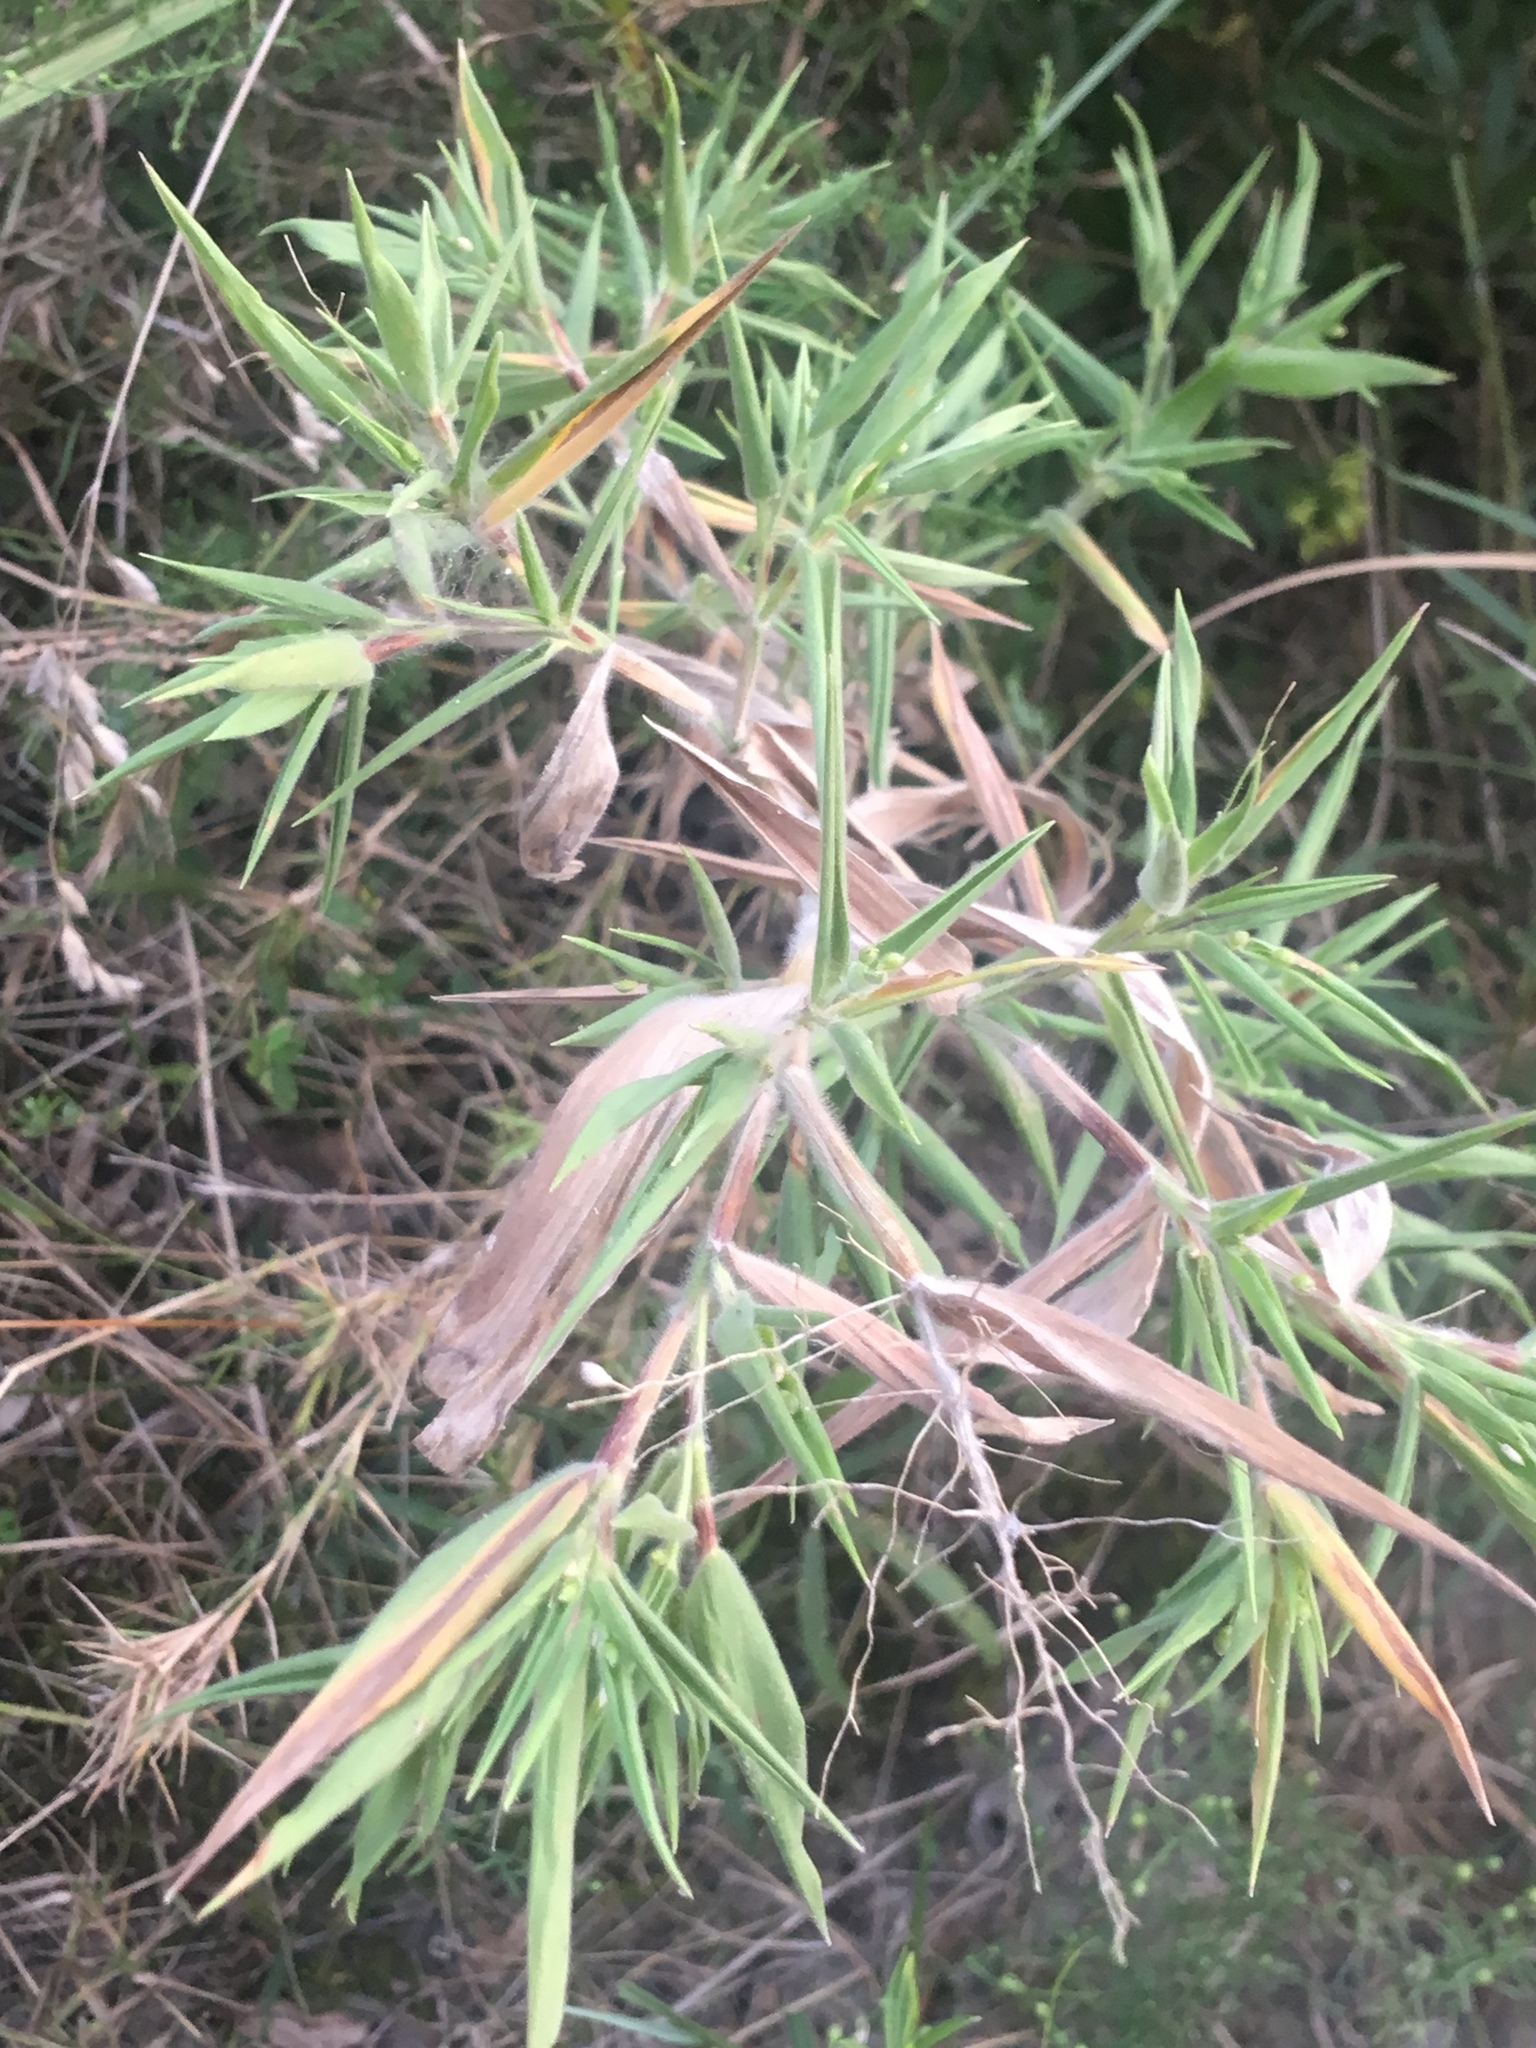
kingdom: Plantae
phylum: Tracheophyta
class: Liliopsida
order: Poales
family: Poaceae
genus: Dichanthelium
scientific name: Dichanthelium scoparium
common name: Velvety panic grass
